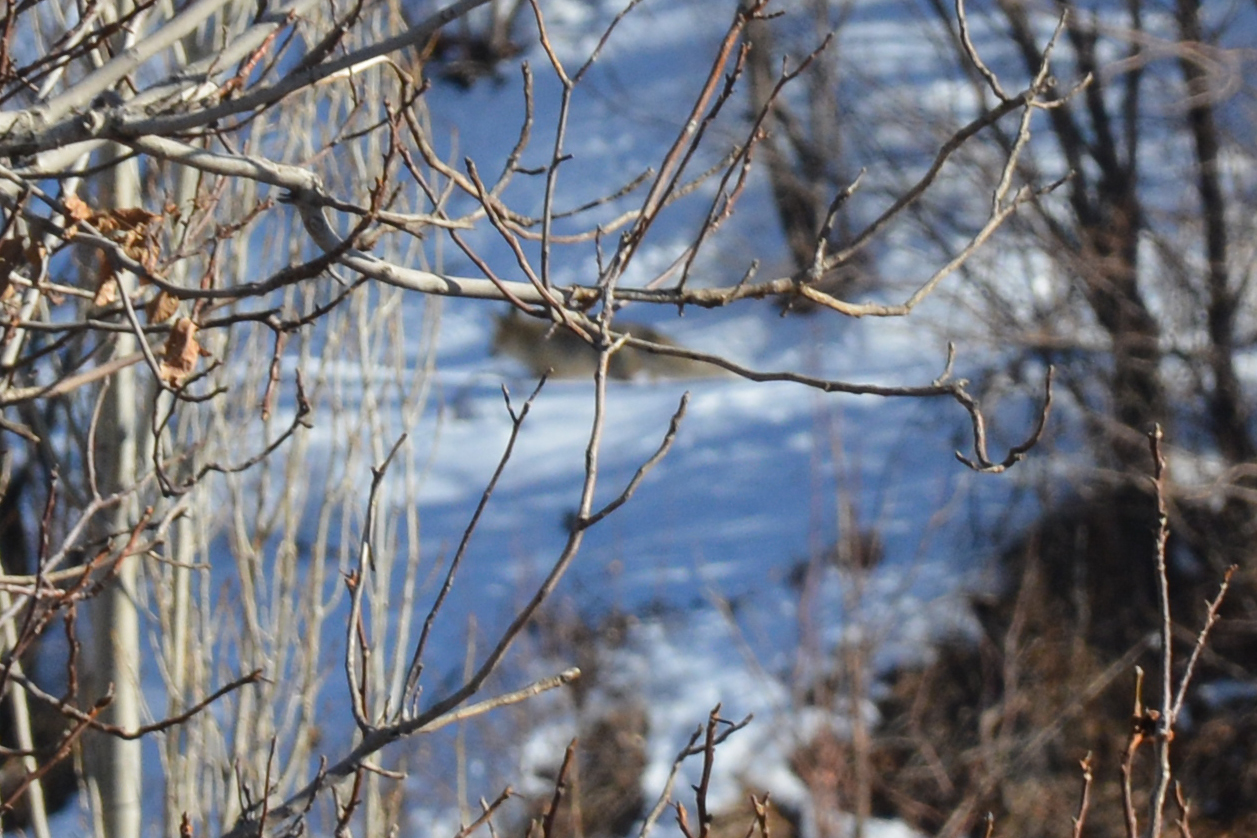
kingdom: Animalia
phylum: Chordata
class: Mammalia
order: Carnivora
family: Canidae
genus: Vulpes
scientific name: Vulpes vulpes
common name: Red fox
